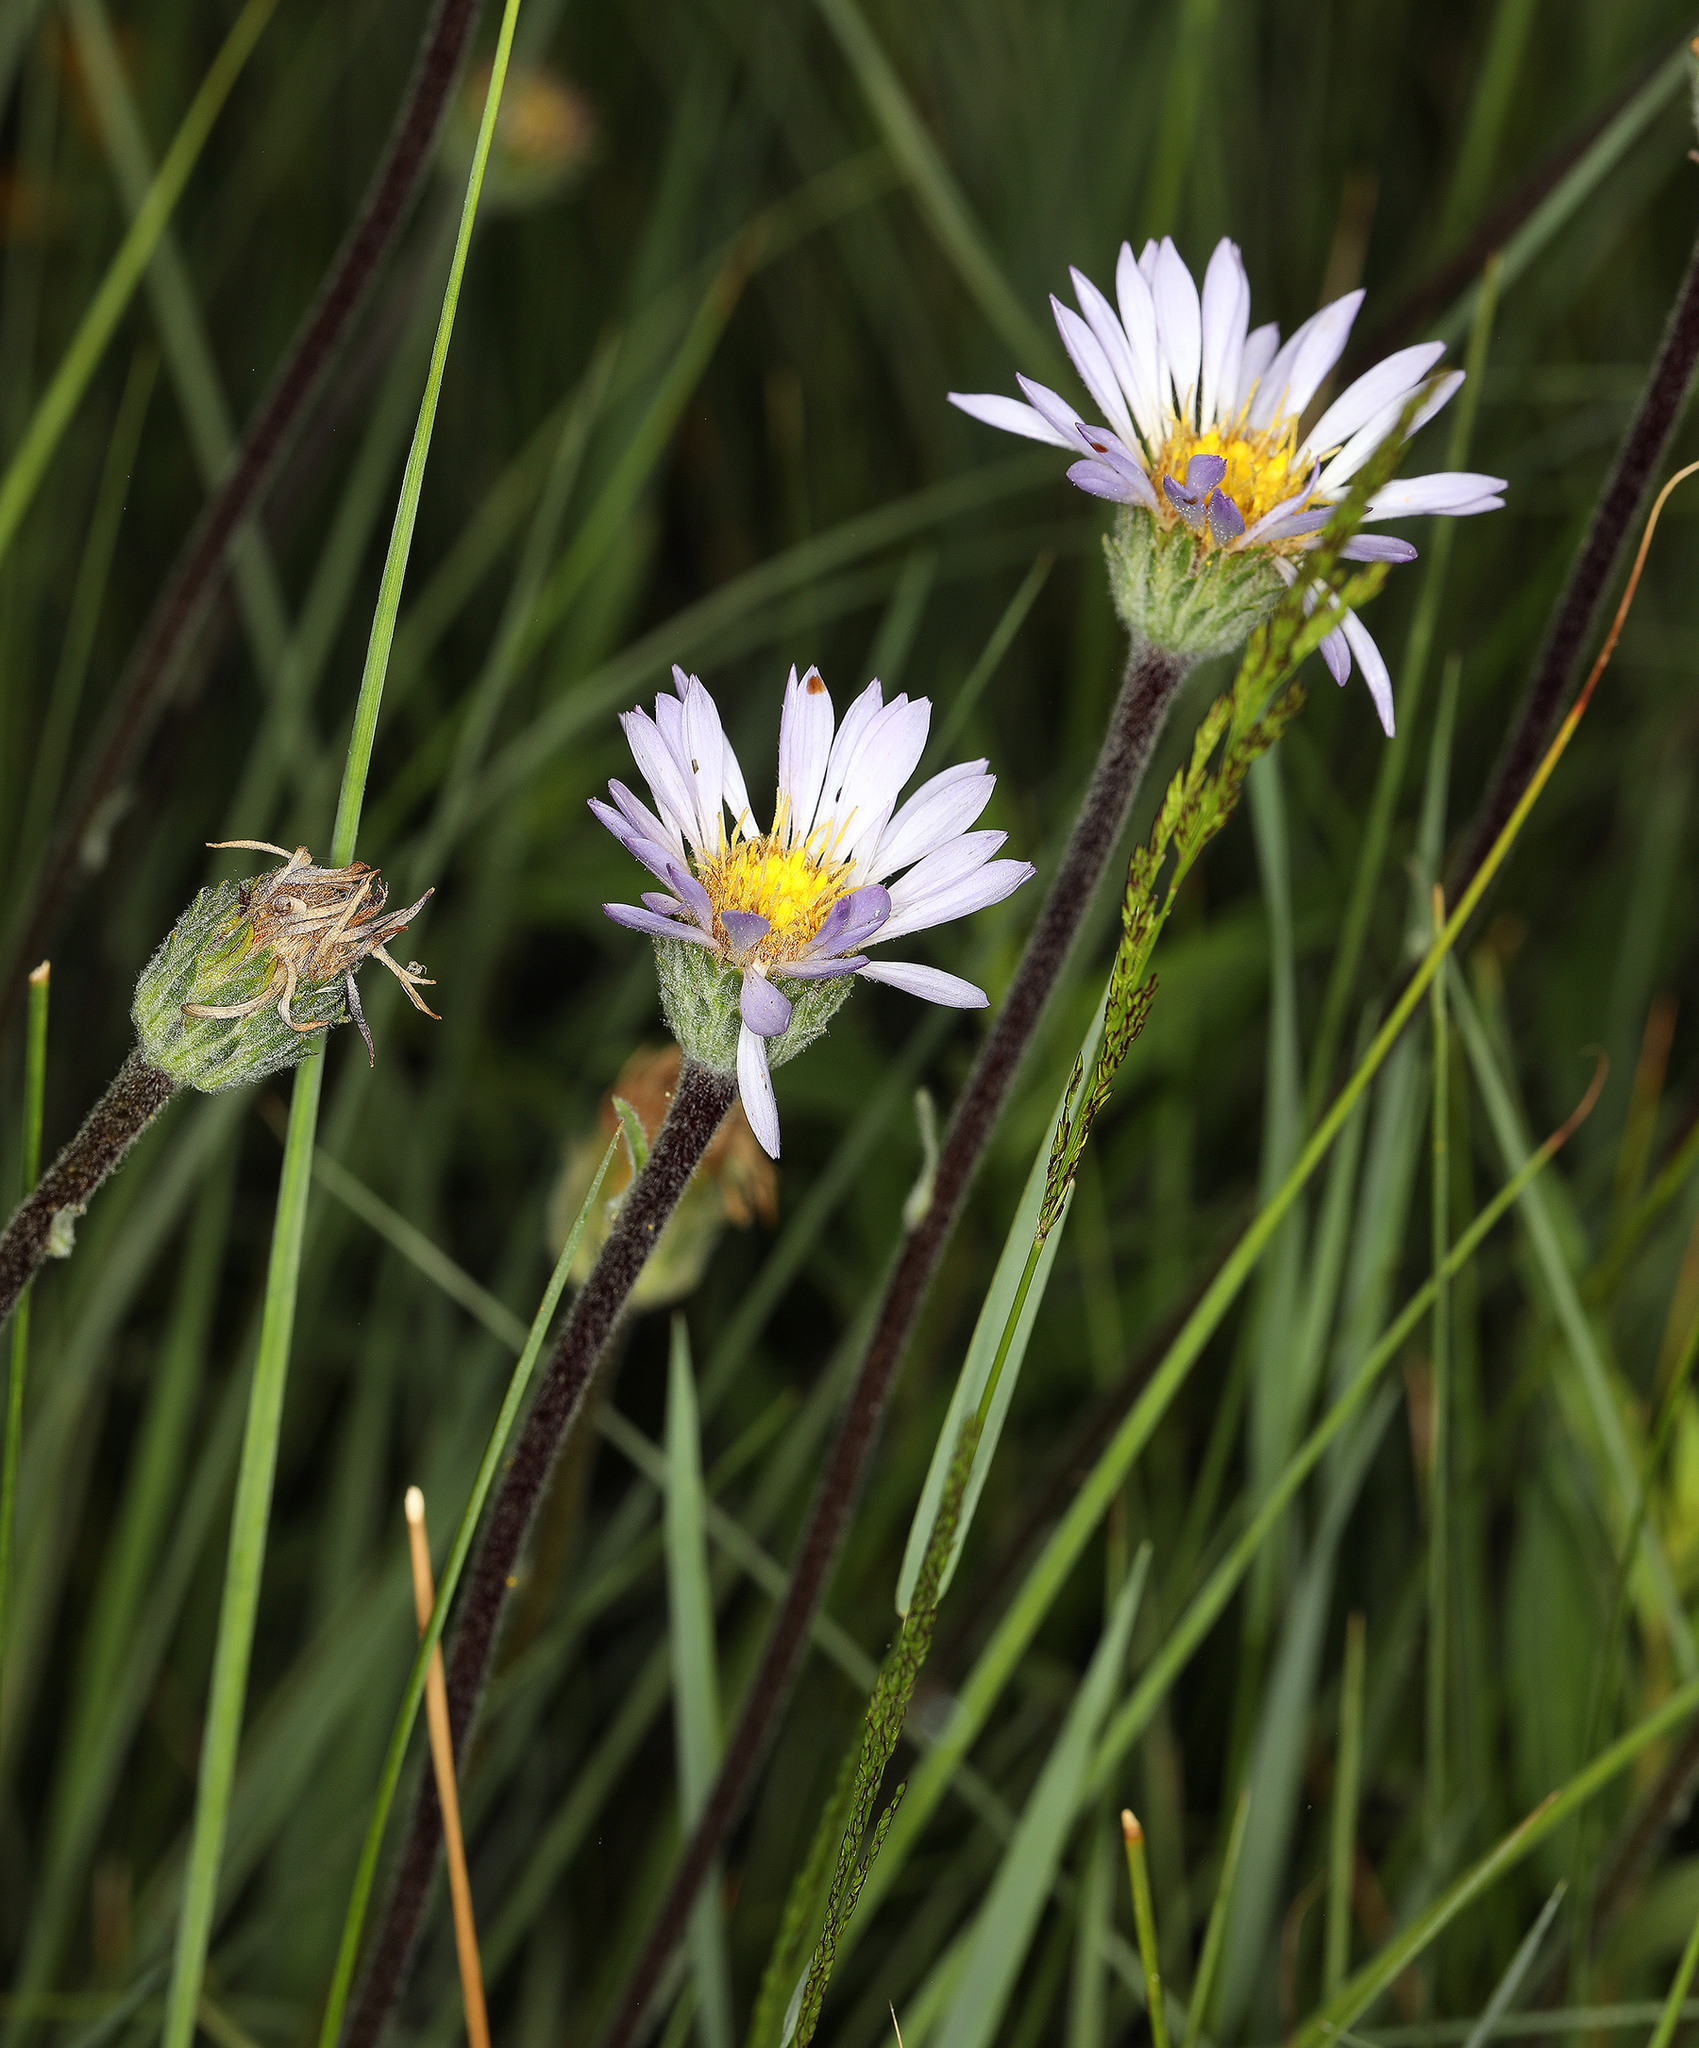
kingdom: Plantae
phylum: Tracheophyta
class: Magnoliopsida
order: Asterales
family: Asteraceae
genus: Oreostemma
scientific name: Oreostemma alpigenum
